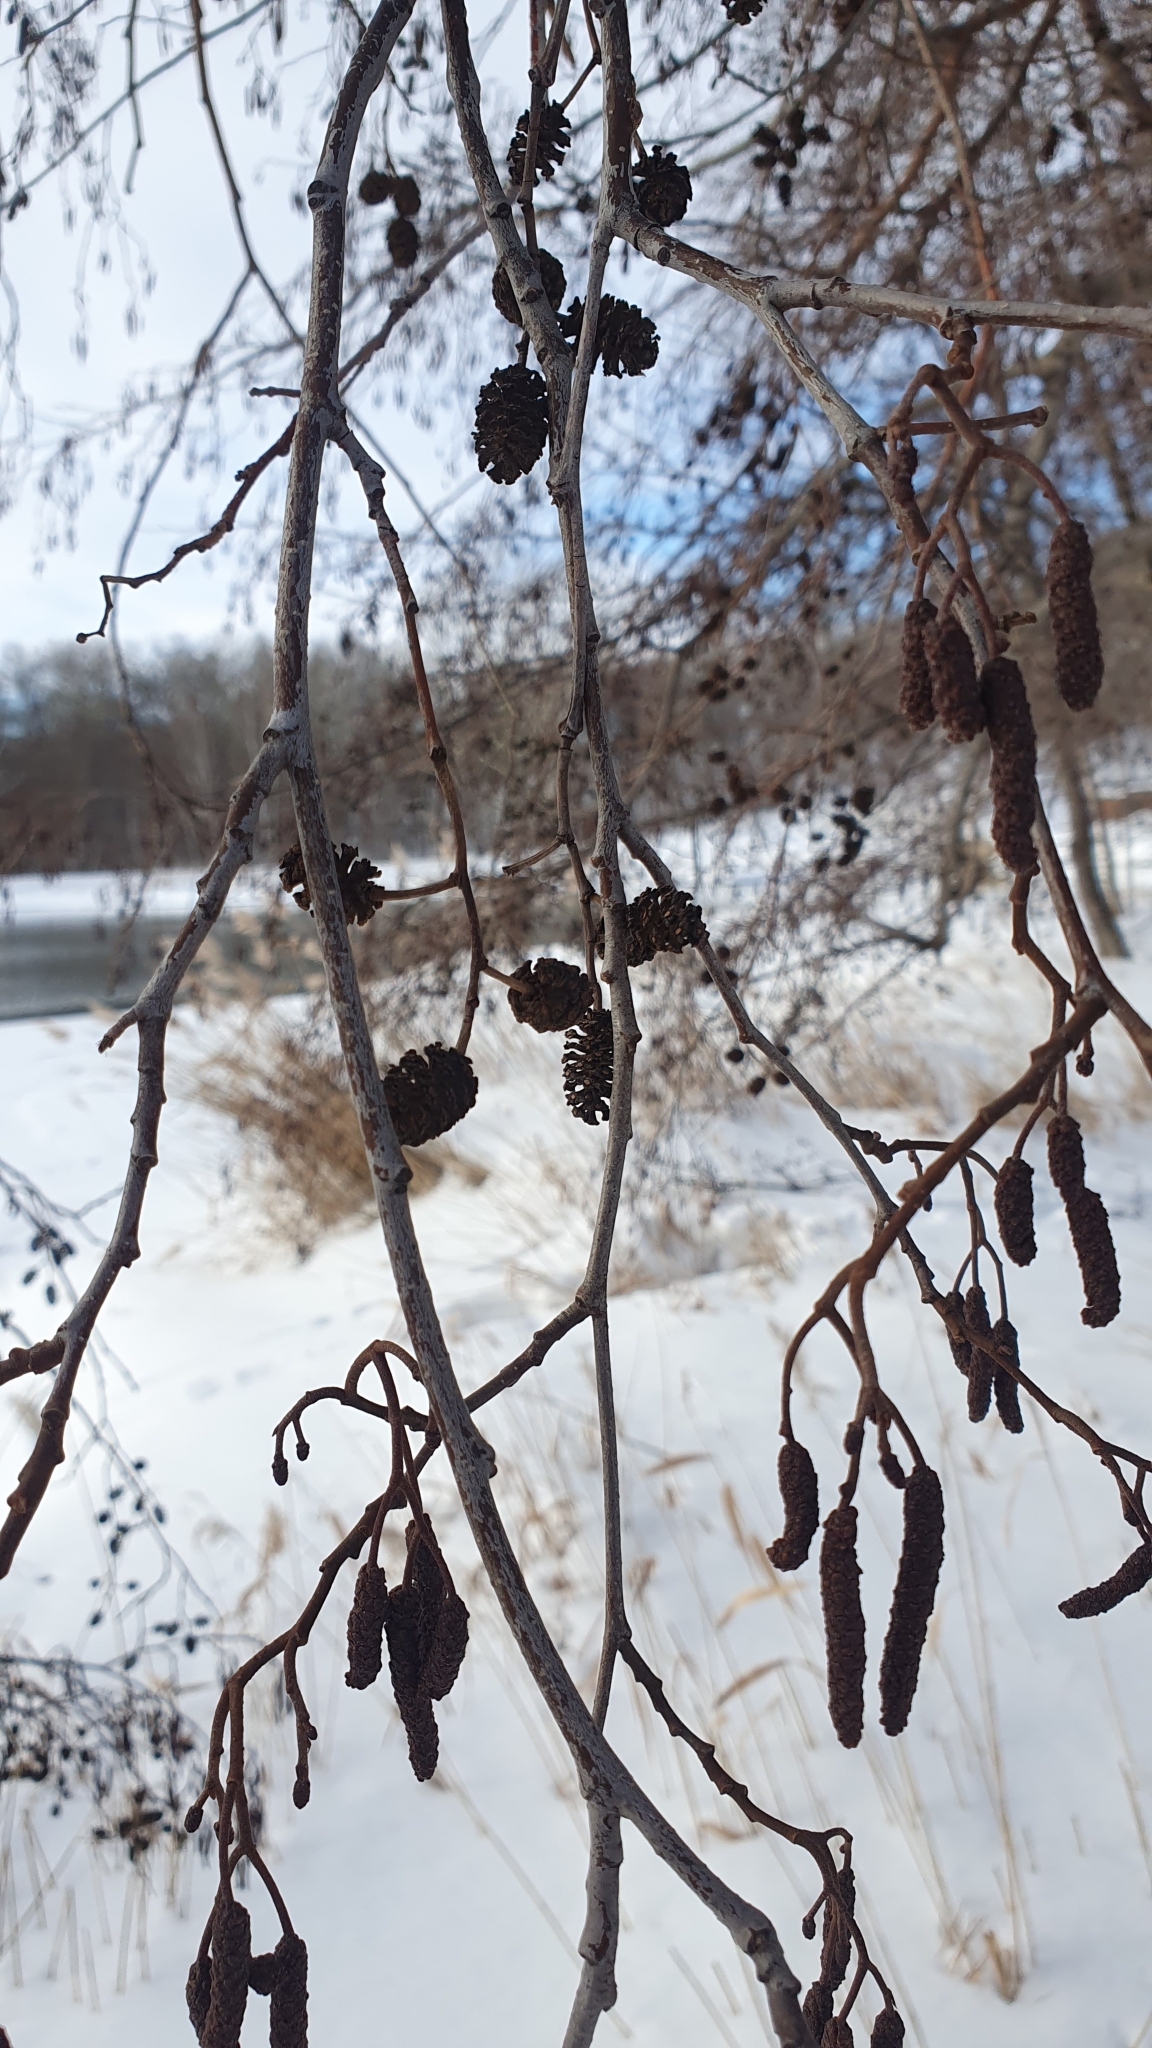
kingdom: Plantae
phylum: Tracheophyta
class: Magnoliopsida
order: Fagales
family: Betulaceae
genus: Alnus
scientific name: Alnus glutinosa
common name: Black alder
